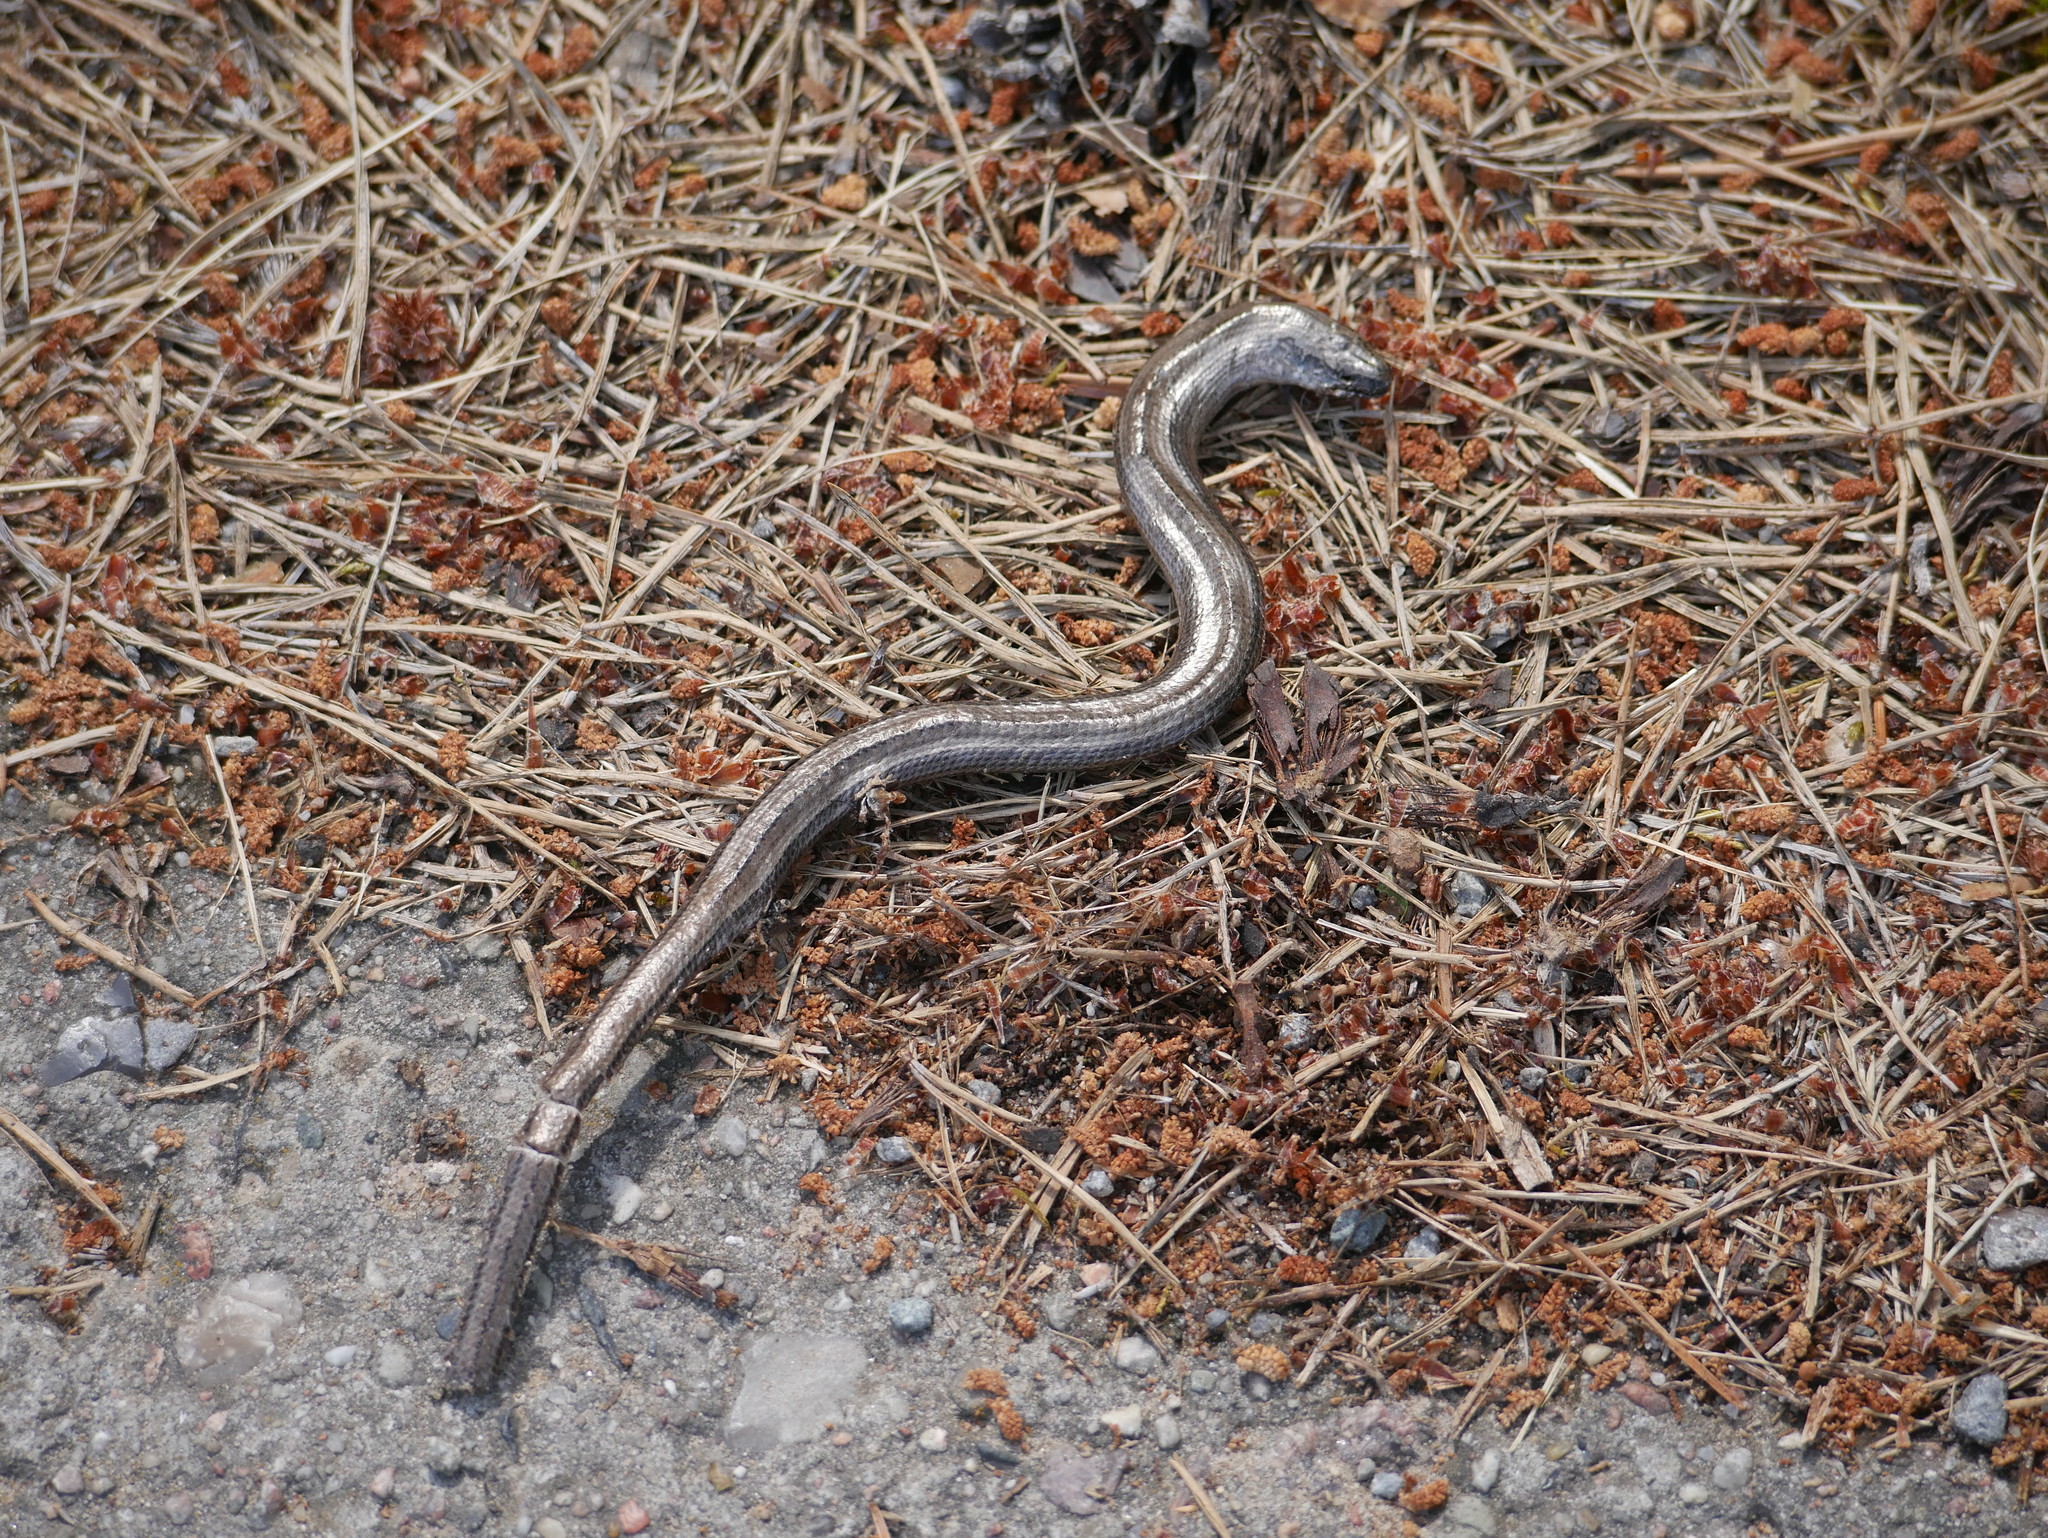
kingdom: Animalia
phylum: Chordata
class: Squamata
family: Anguidae
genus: Anguis
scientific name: Anguis fragilis
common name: Slow worm
